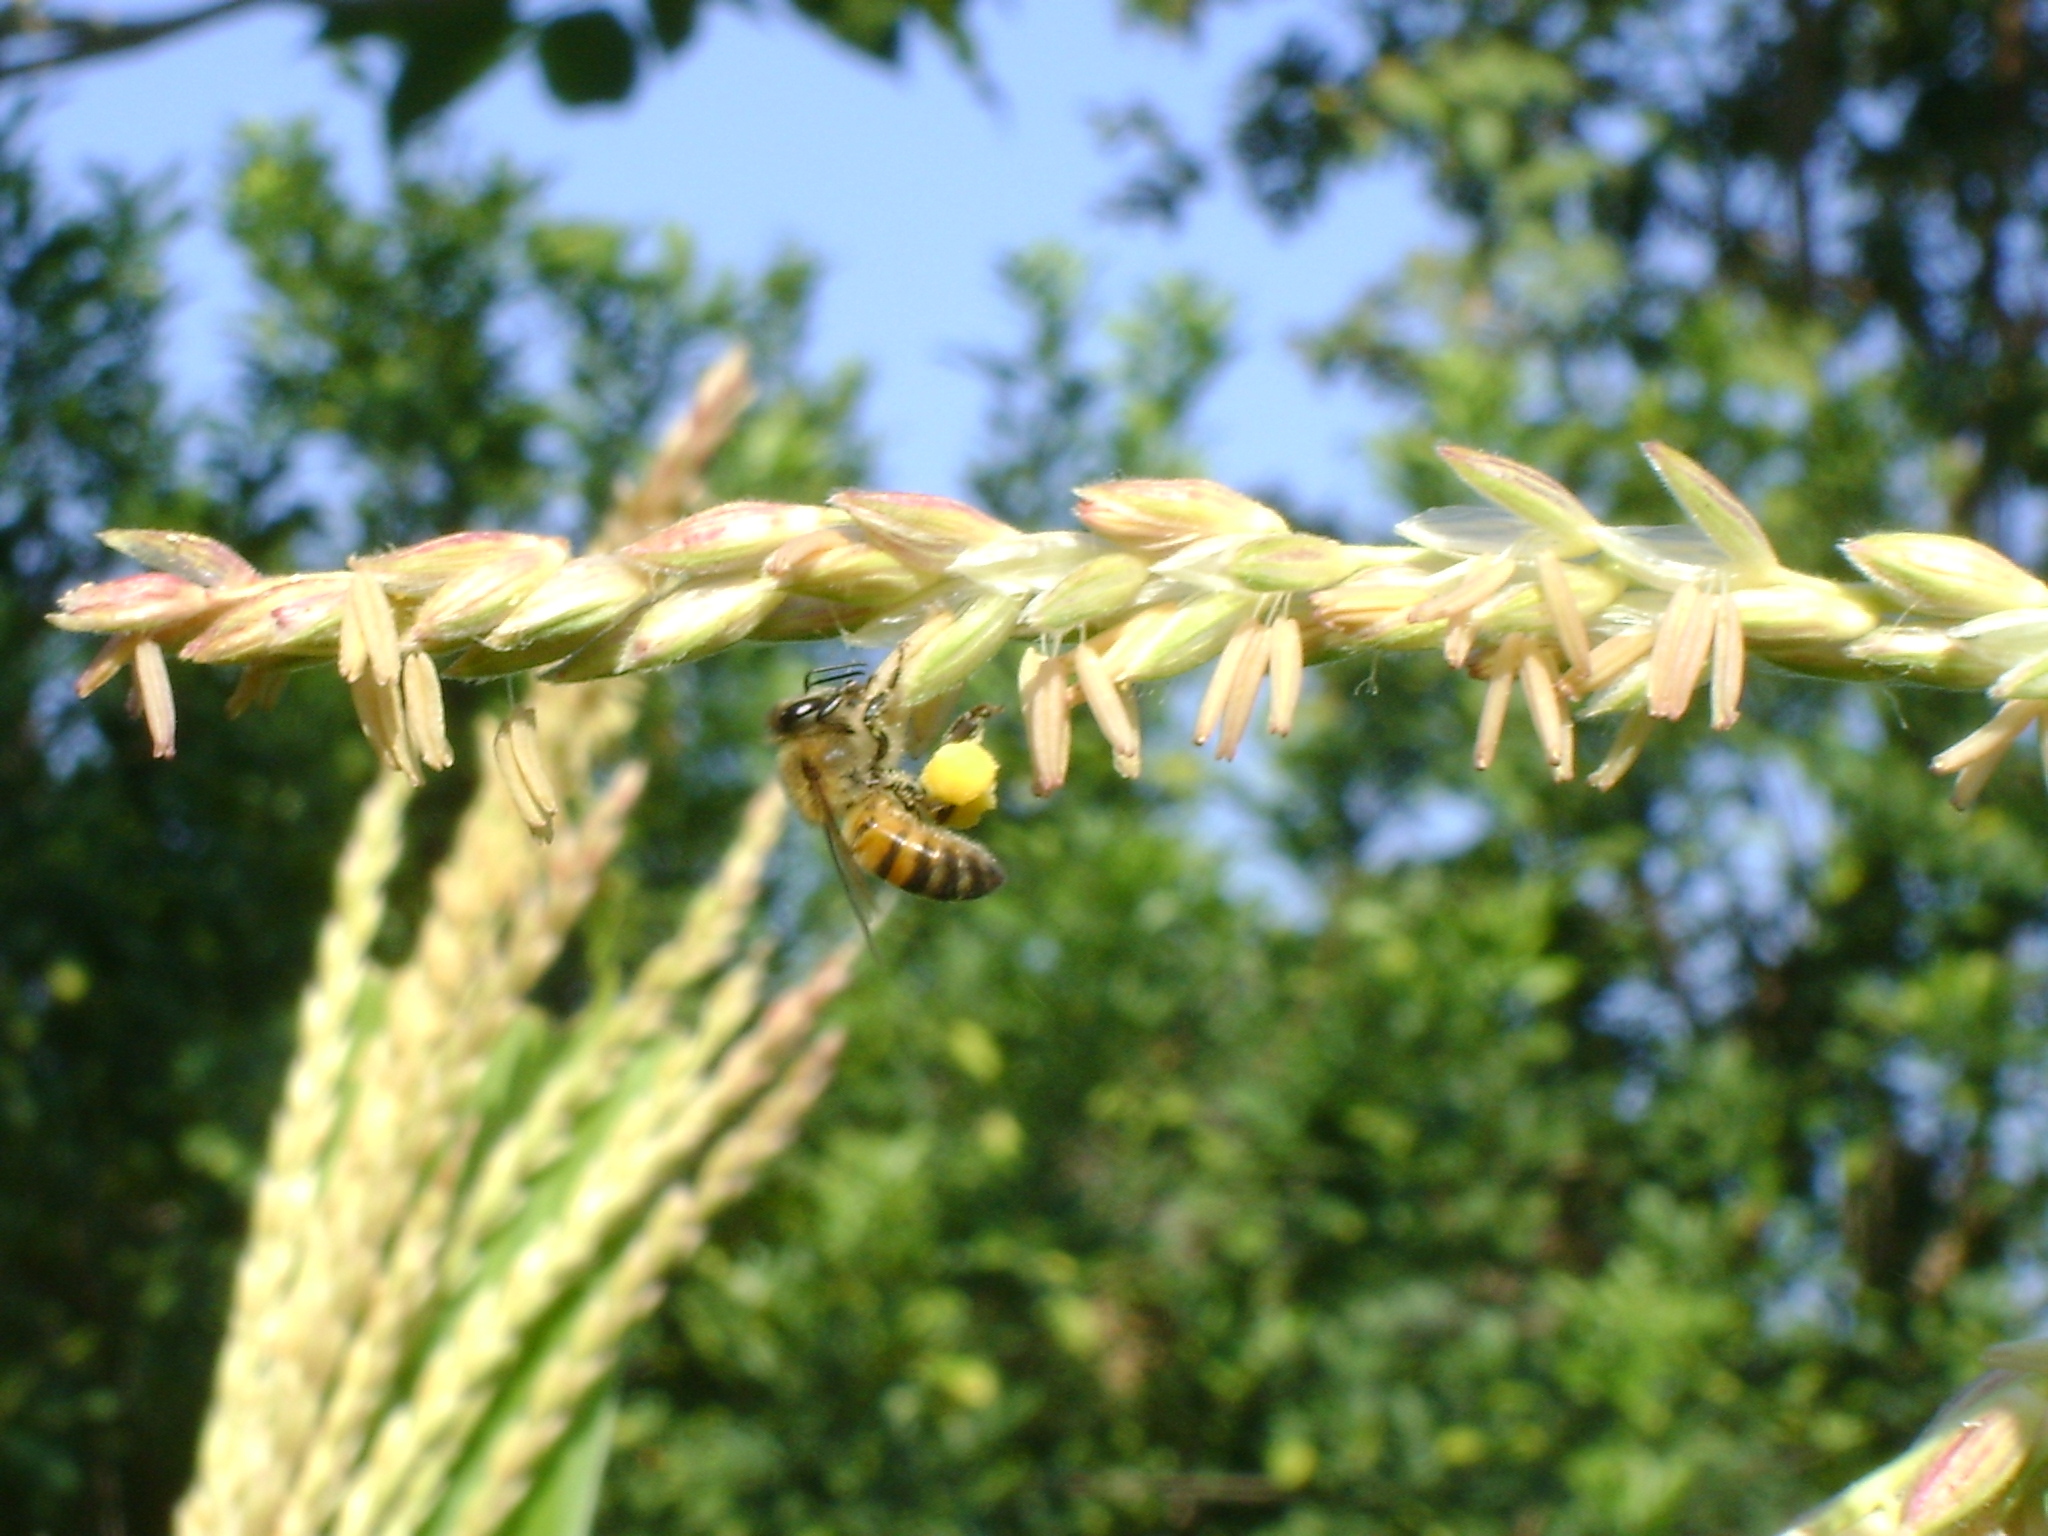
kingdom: Animalia
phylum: Arthropoda
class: Insecta
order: Hymenoptera
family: Apidae
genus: Apis
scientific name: Apis mellifera
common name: Honey bee
